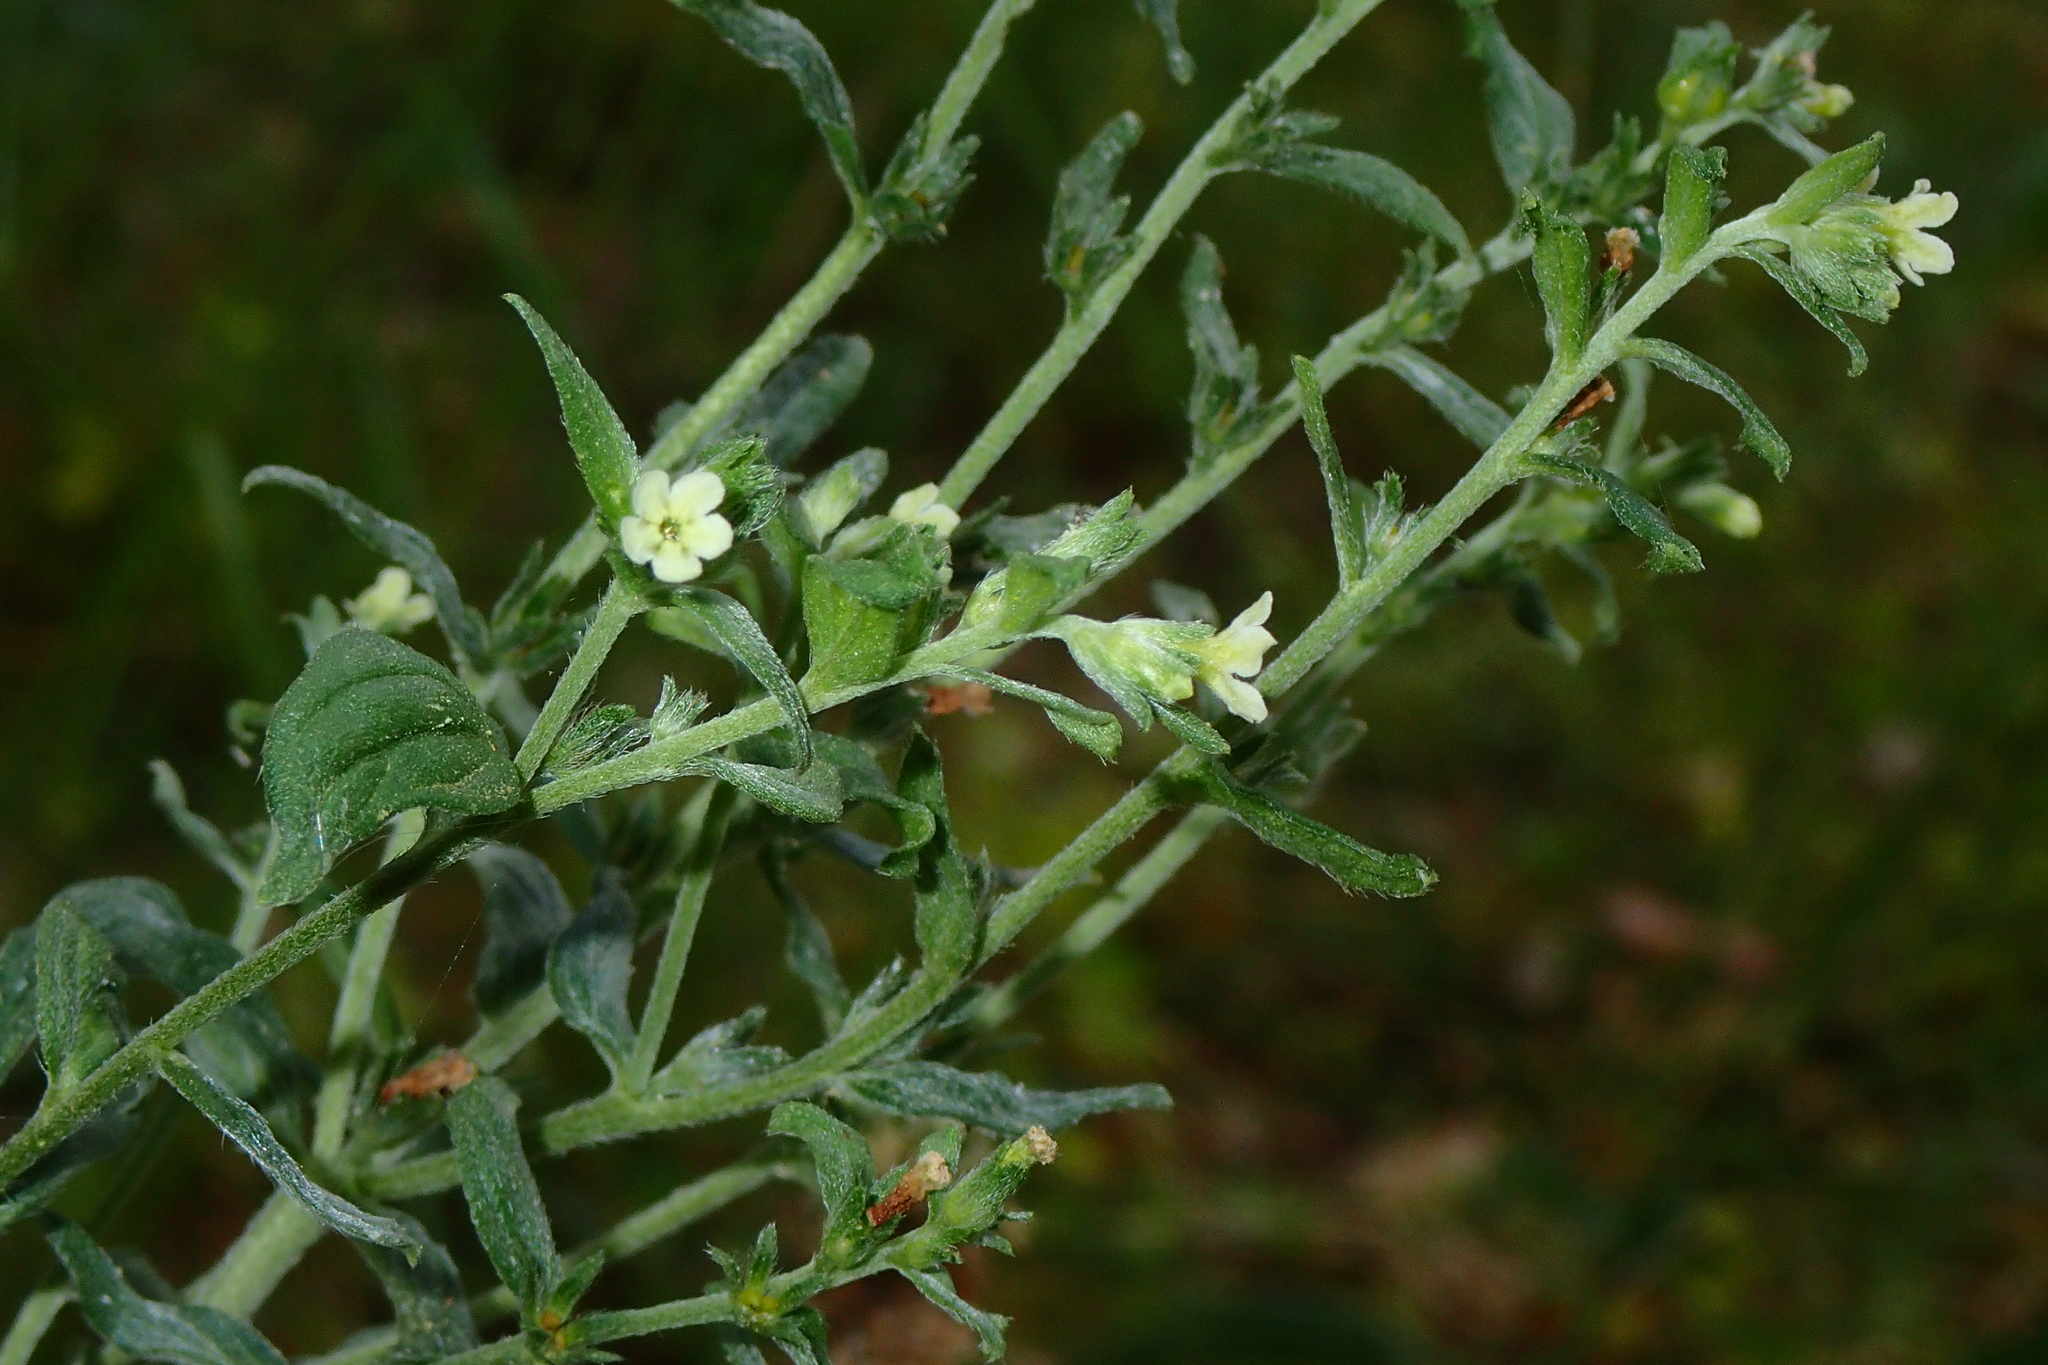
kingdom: Plantae
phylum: Tracheophyta
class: Magnoliopsida
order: Boraginales
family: Boraginaceae
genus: Lithospermum
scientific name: Lithospermum officinale
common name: Common gromwell
